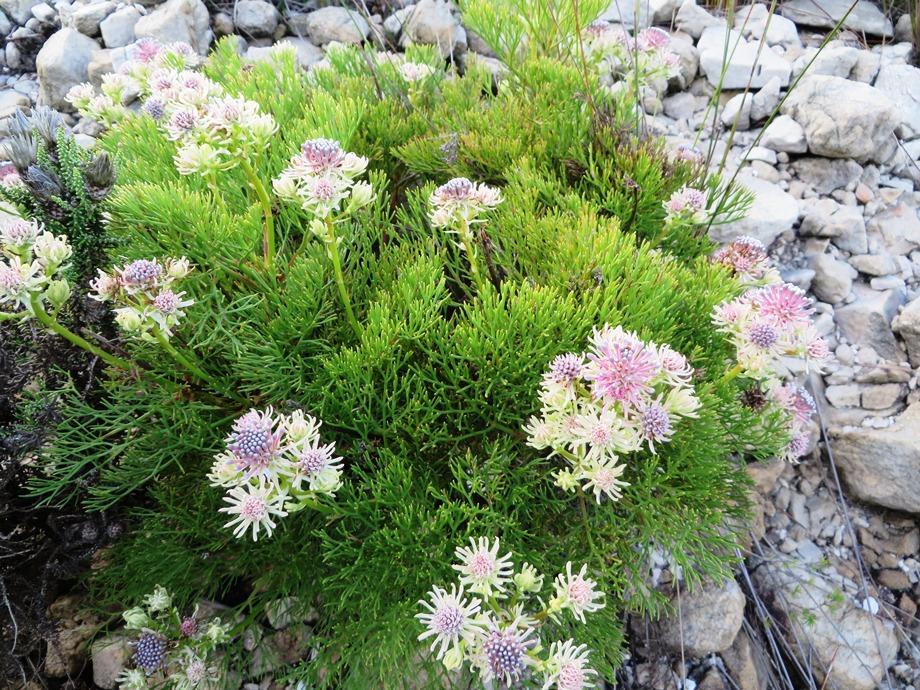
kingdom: Plantae
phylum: Tracheophyta
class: Magnoliopsida
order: Proteales
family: Proteaceae
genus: Serruria
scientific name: Serruria elongata
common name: Long-stalk spiderhead
